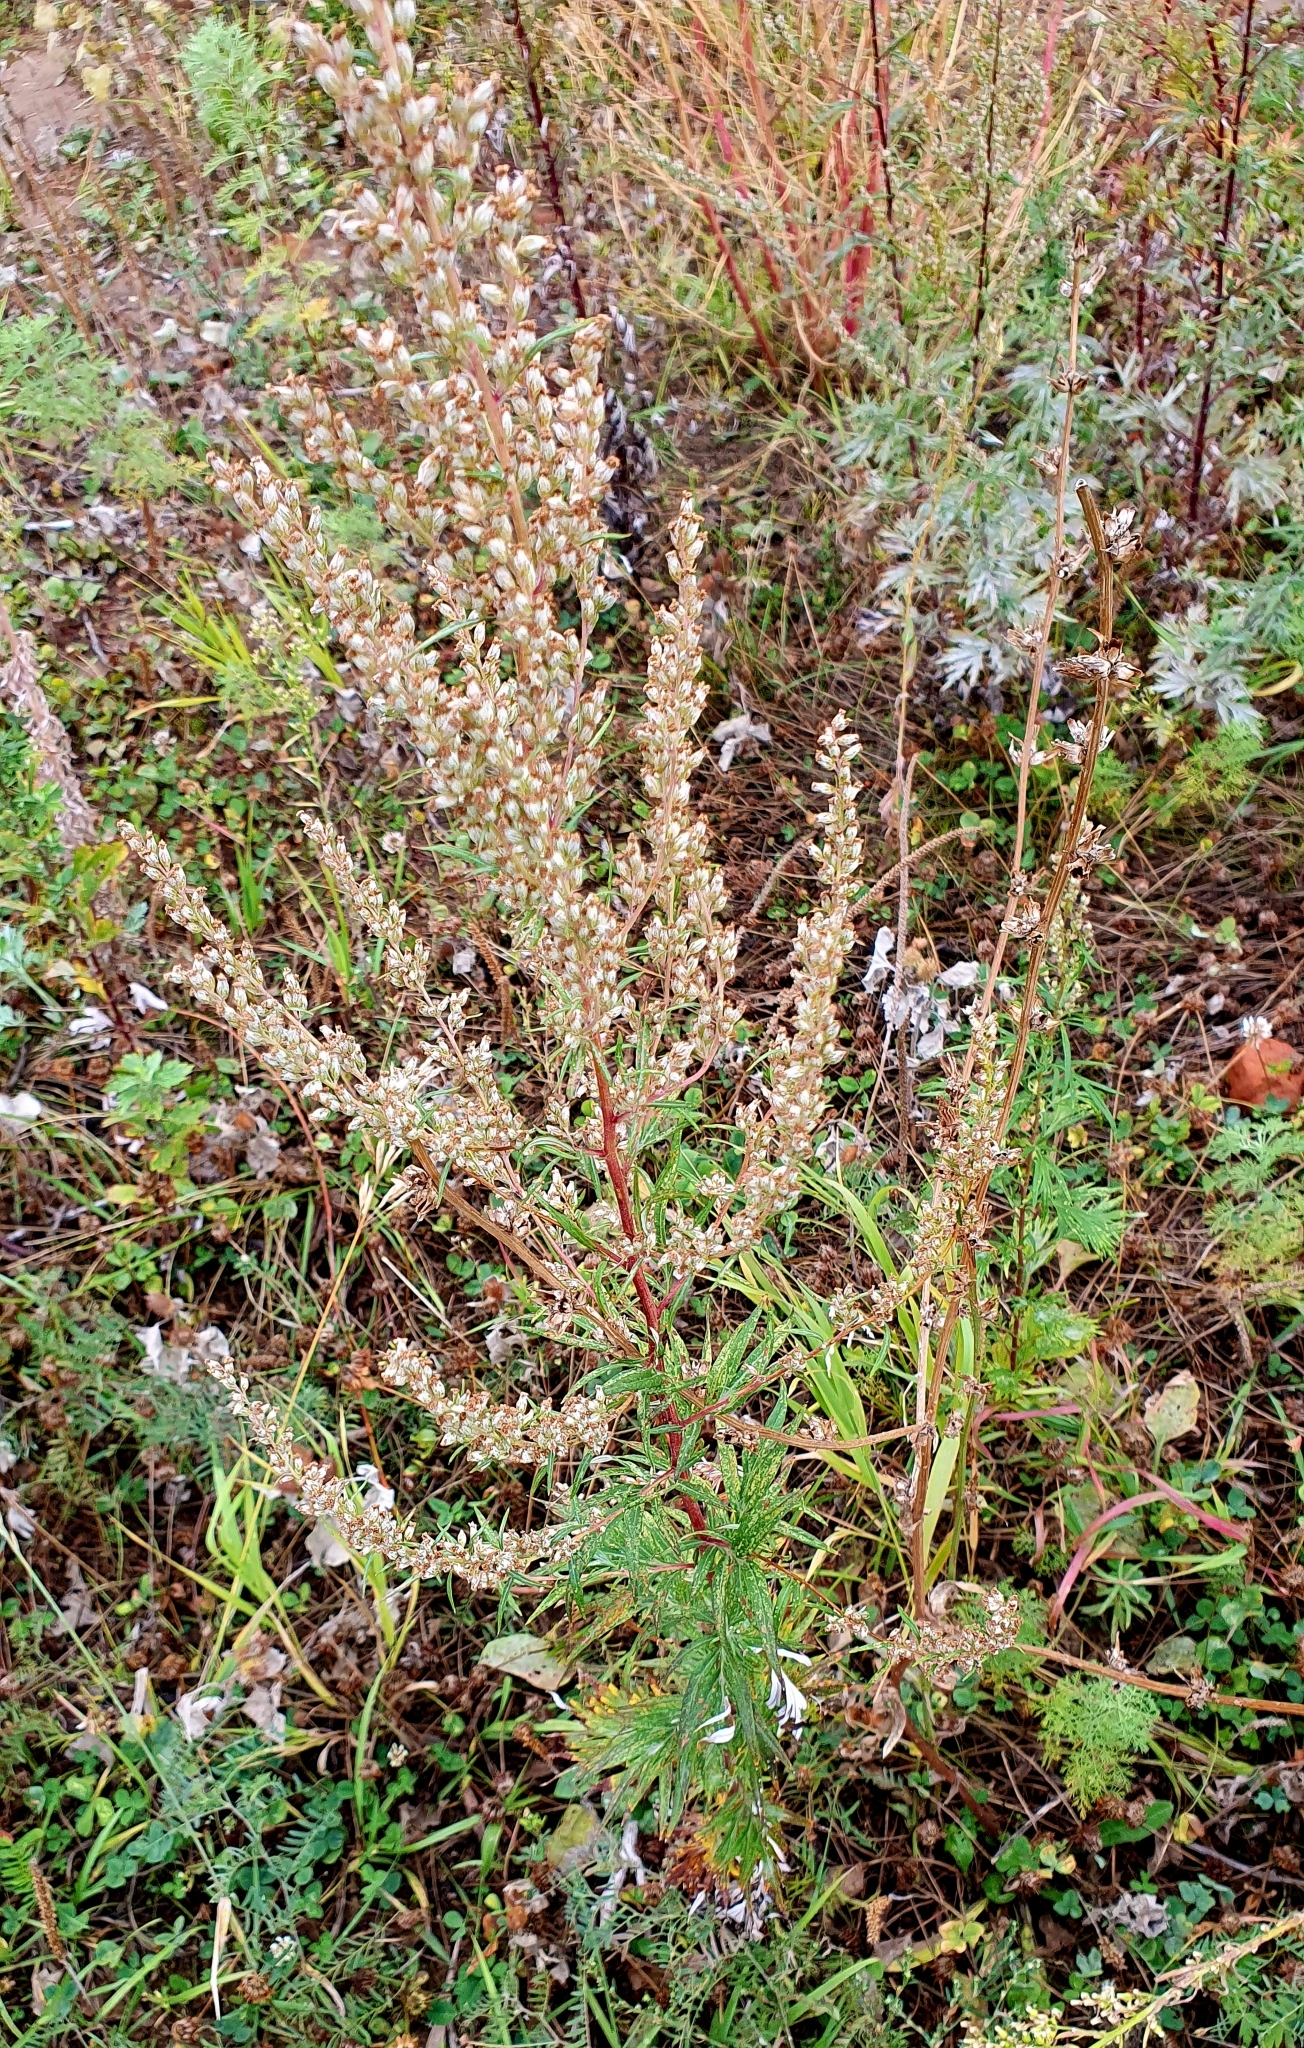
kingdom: Plantae
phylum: Tracheophyta
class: Magnoliopsida
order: Asterales
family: Asteraceae
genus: Artemisia
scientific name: Artemisia vulgaris
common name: Mugwort
